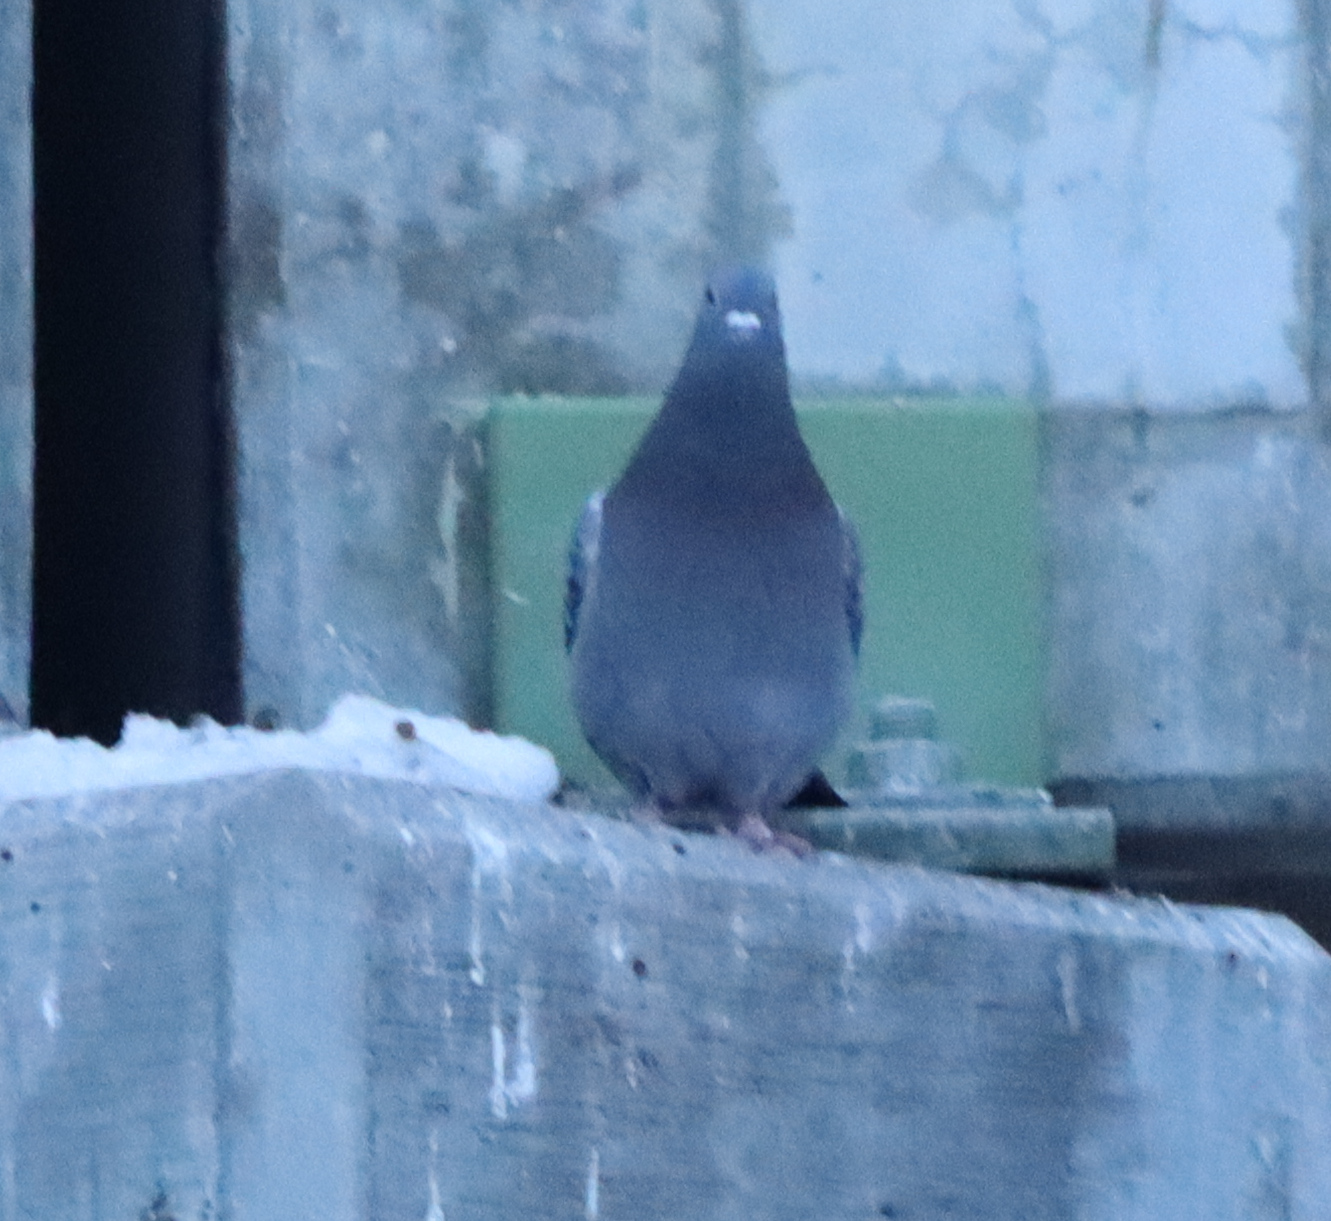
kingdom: Animalia
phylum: Chordata
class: Aves
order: Columbiformes
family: Columbidae
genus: Columba
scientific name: Columba livia
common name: Rock pigeon
